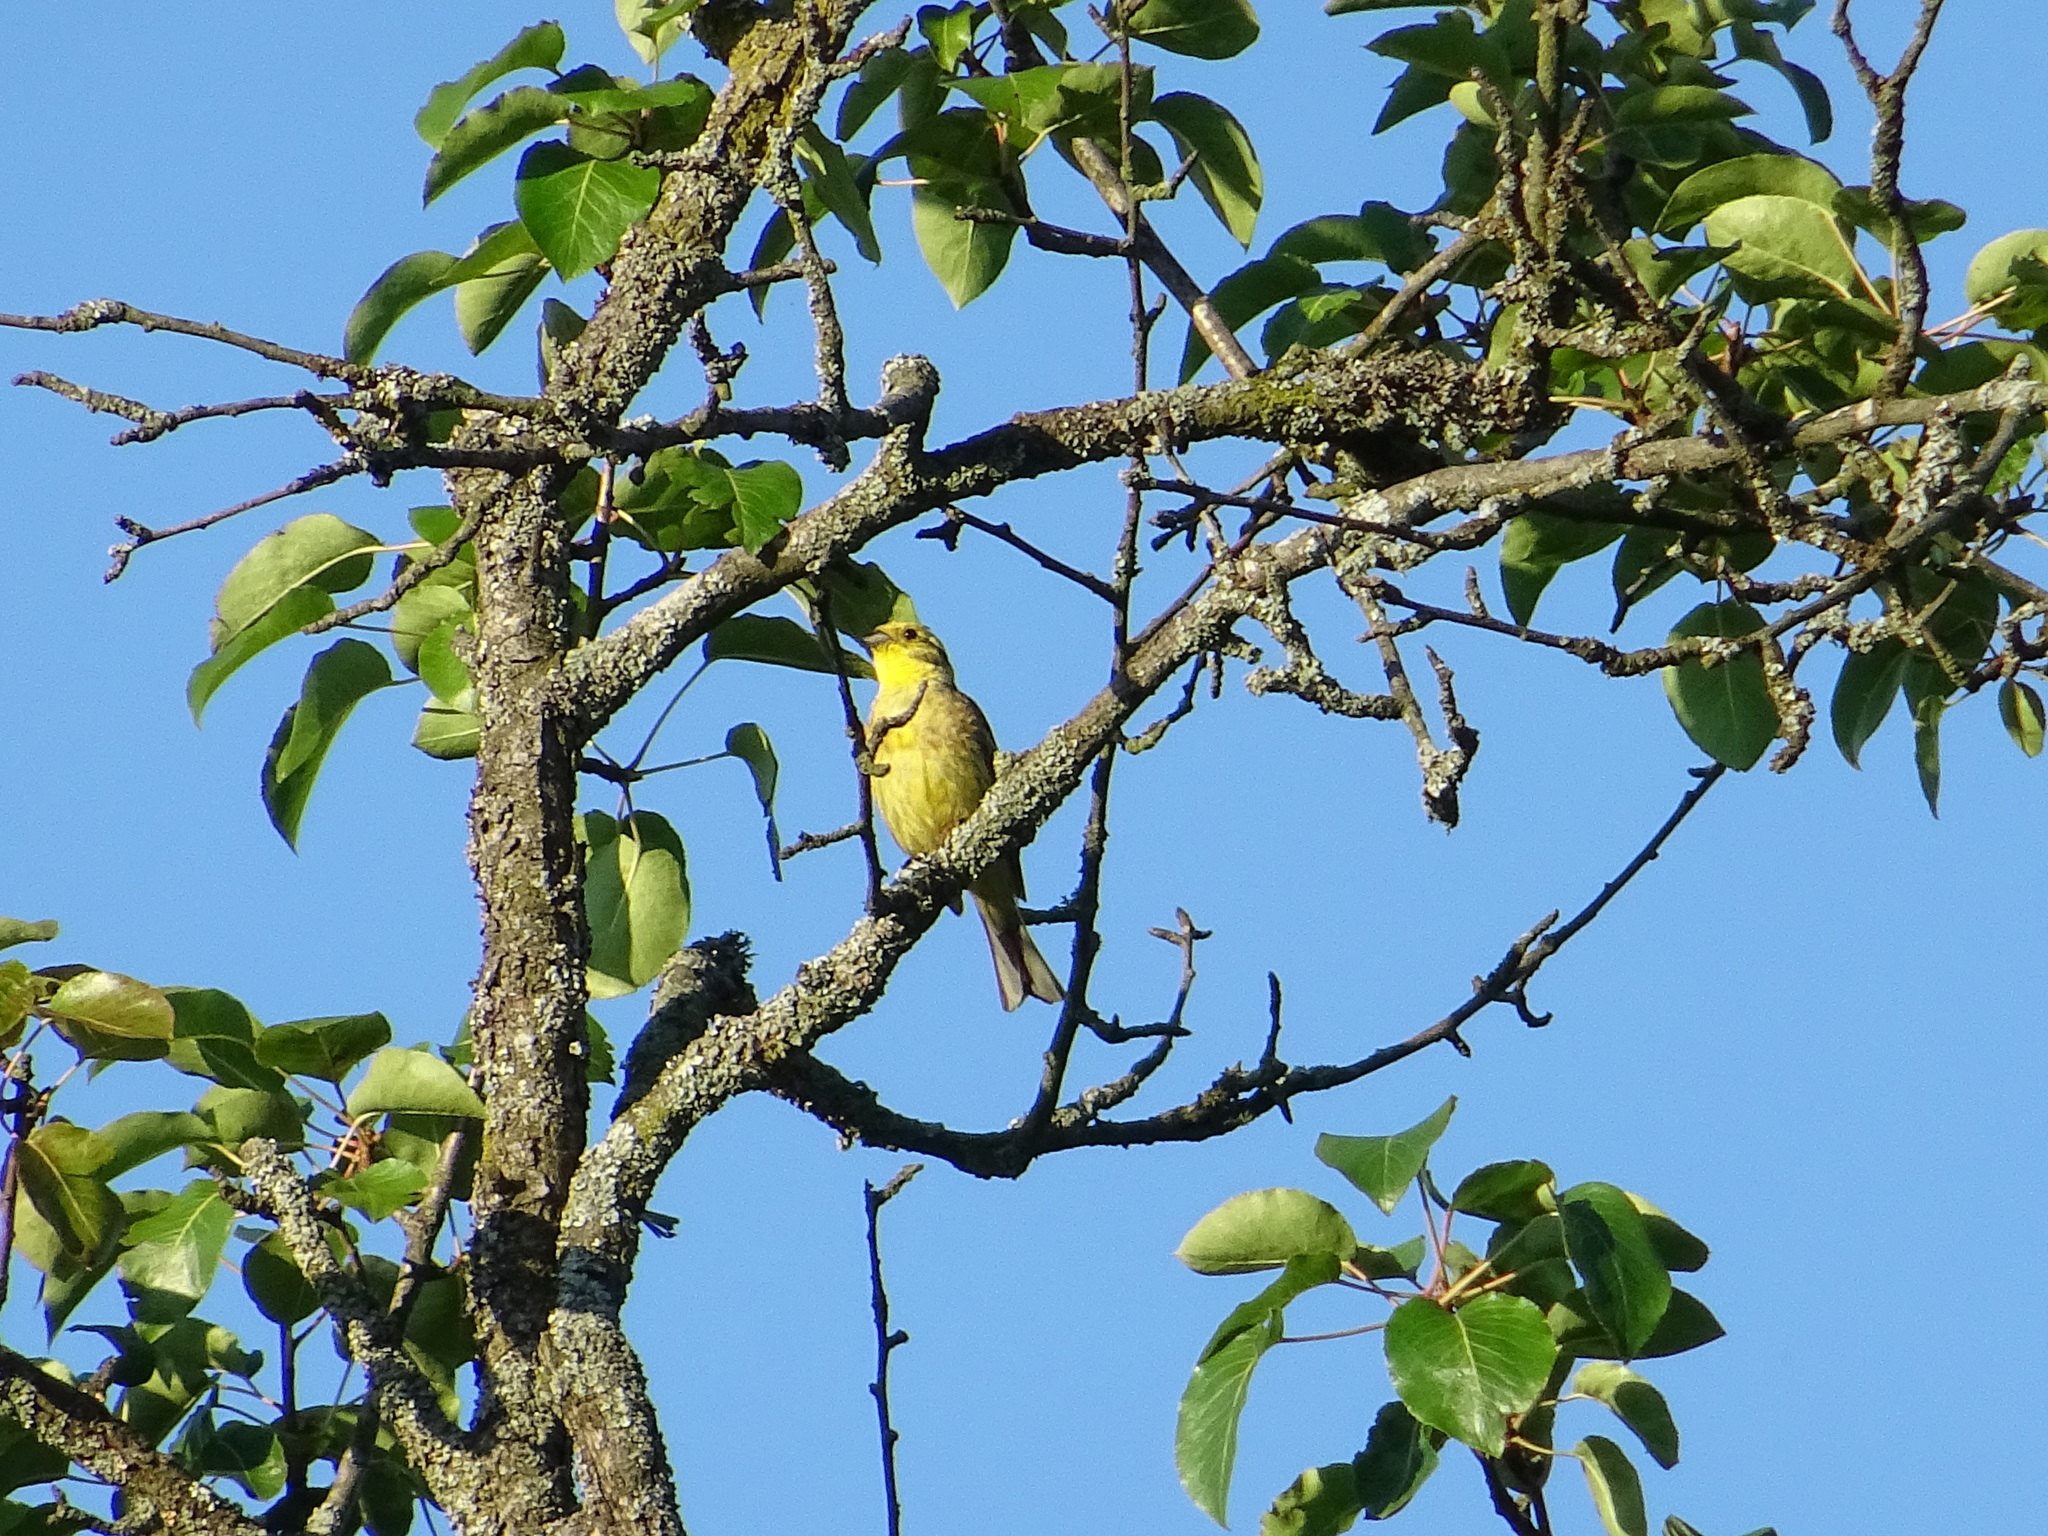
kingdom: Animalia
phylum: Chordata
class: Aves
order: Passeriformes
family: Emberizidae
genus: Emberiza
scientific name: Emberiza citrinella
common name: Yellowhammer
